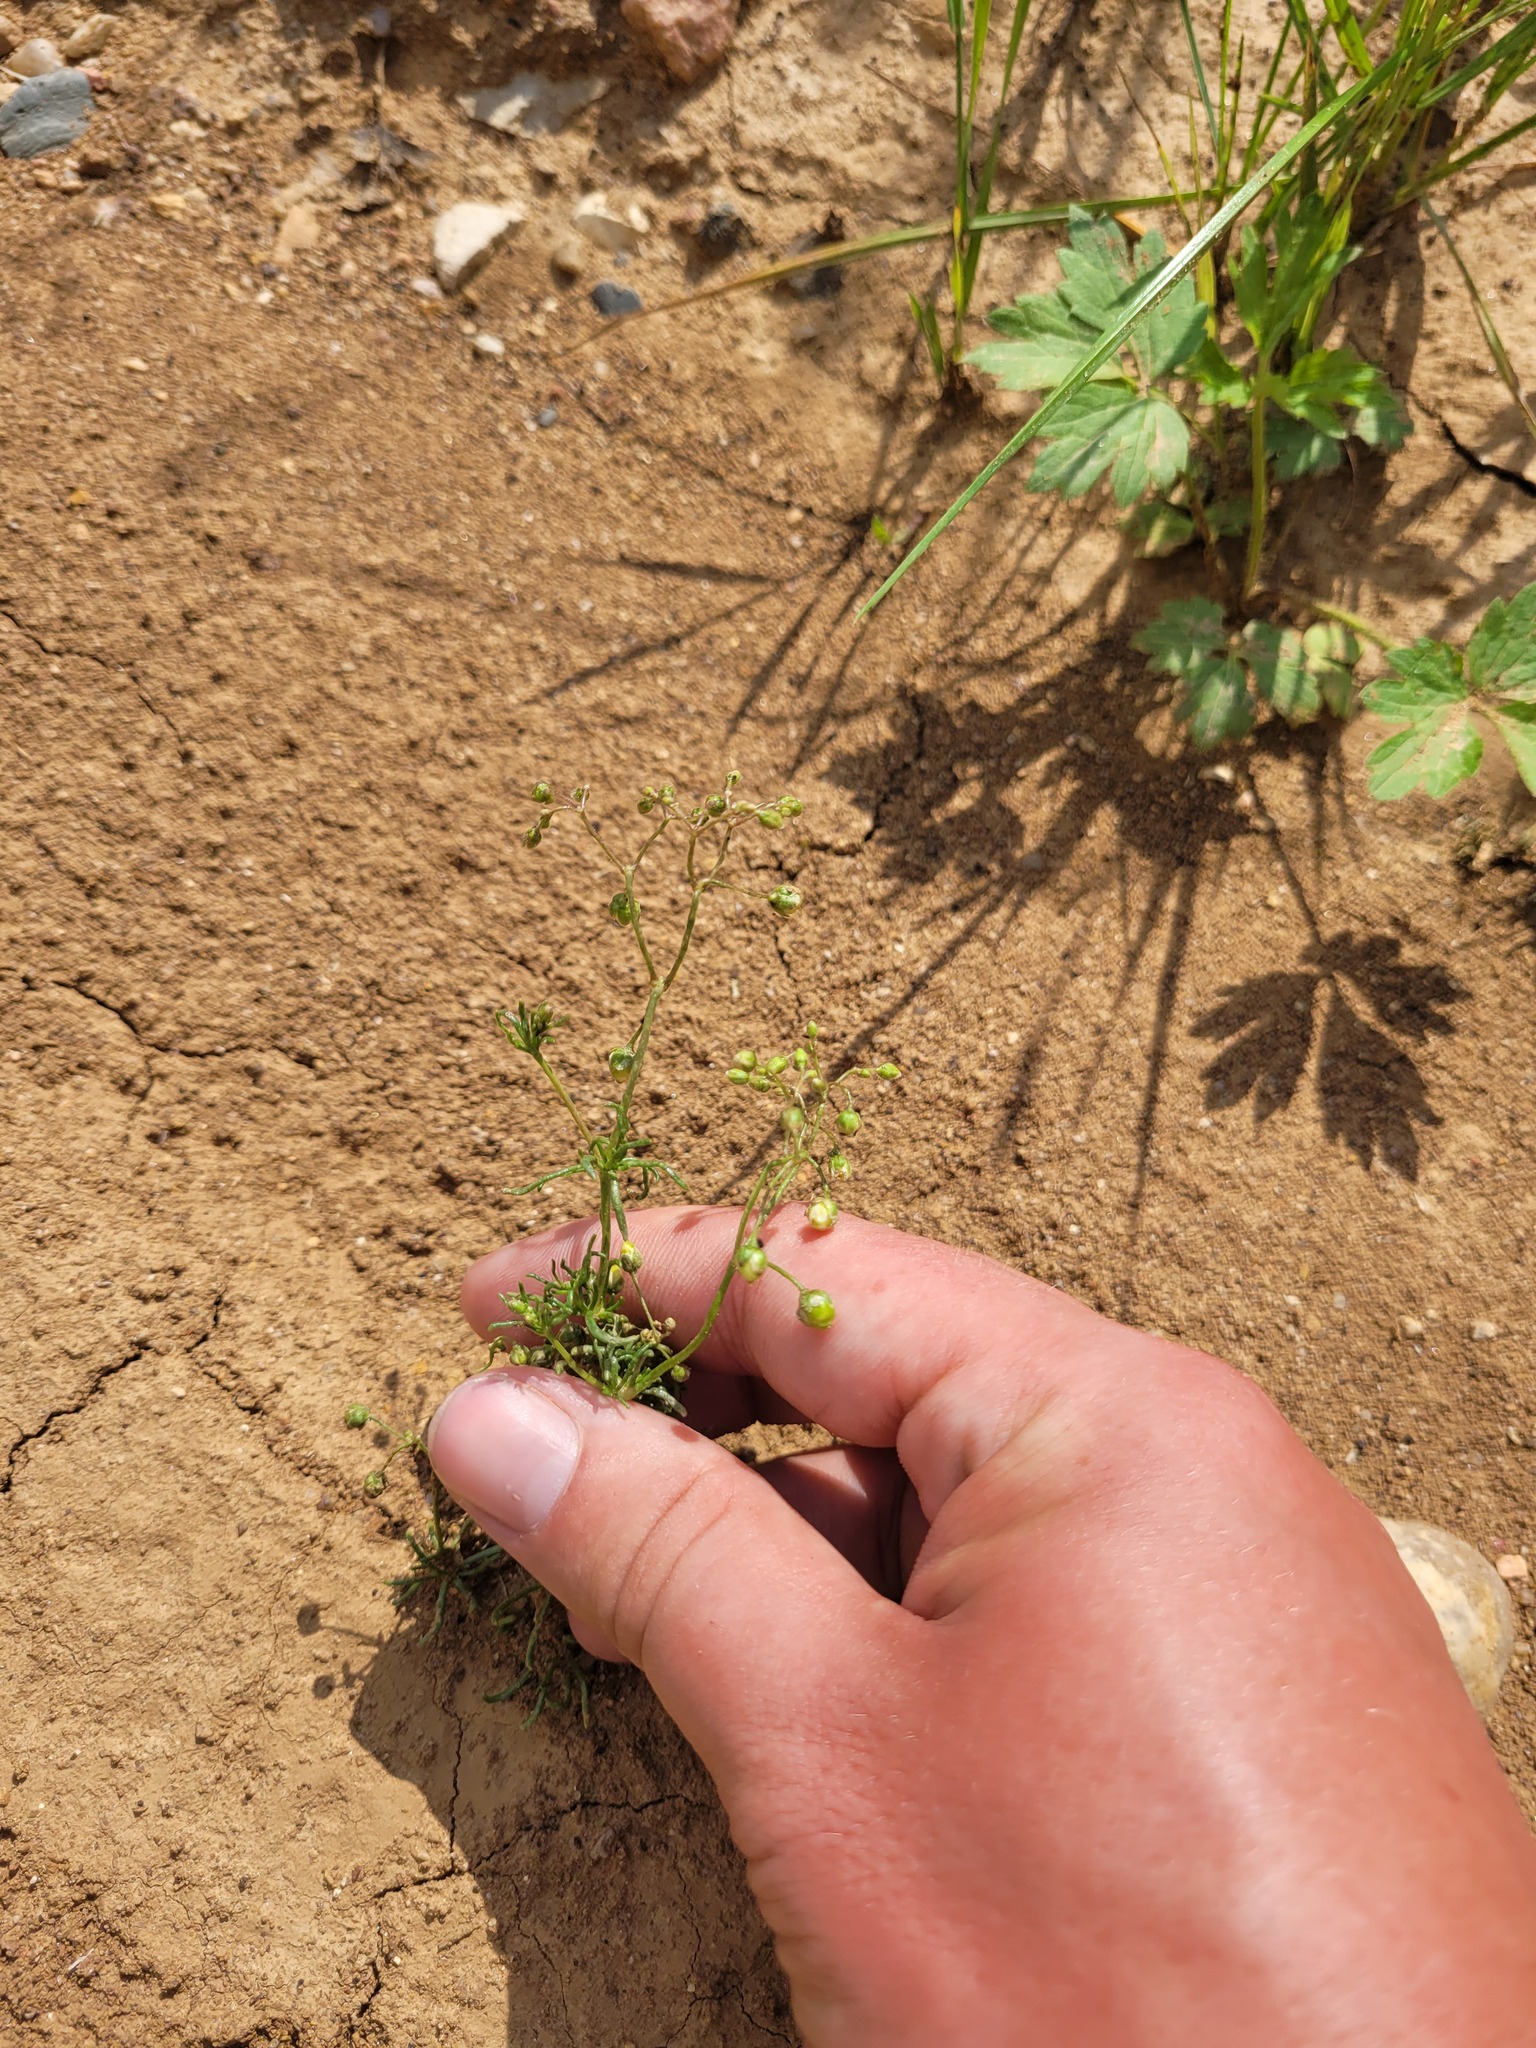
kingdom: Plantae
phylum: Tracheophyta
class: Magnoliopsida
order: Caryophyllales
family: Caryophyllaceae
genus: Spergula
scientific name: Spergula arvensis
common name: Corn spurrey
